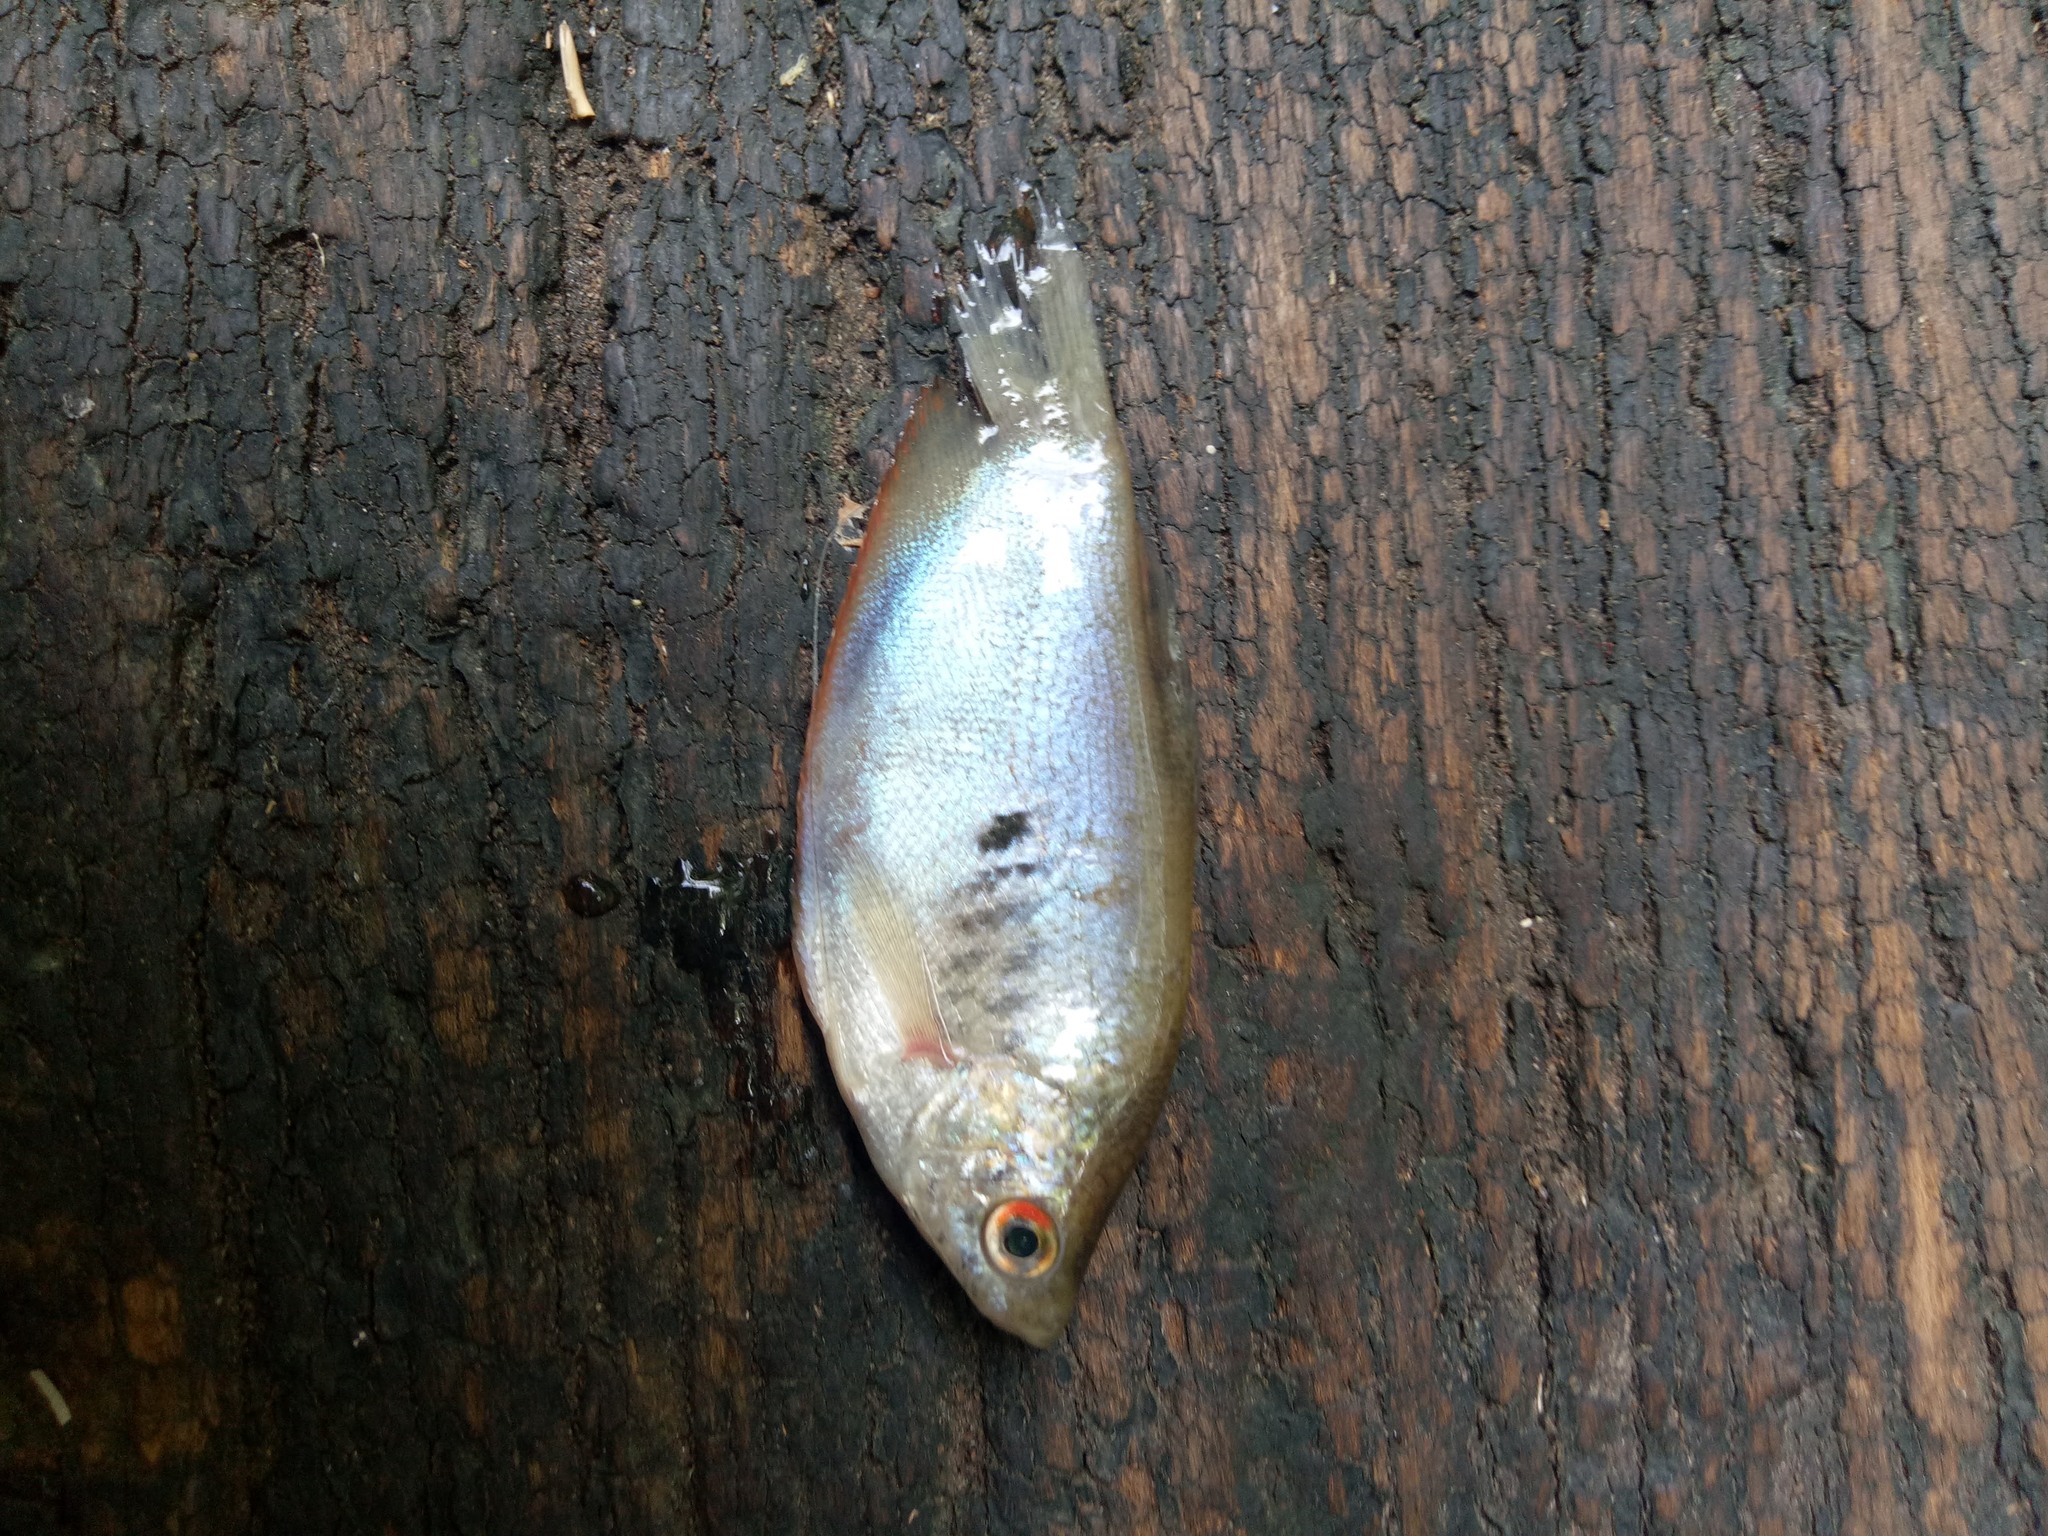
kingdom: Animalia
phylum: Chordata
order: Perciformes
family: Osphronemidae
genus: Trichopodus
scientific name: Trichopodus trichopterus
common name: Blue gourami
